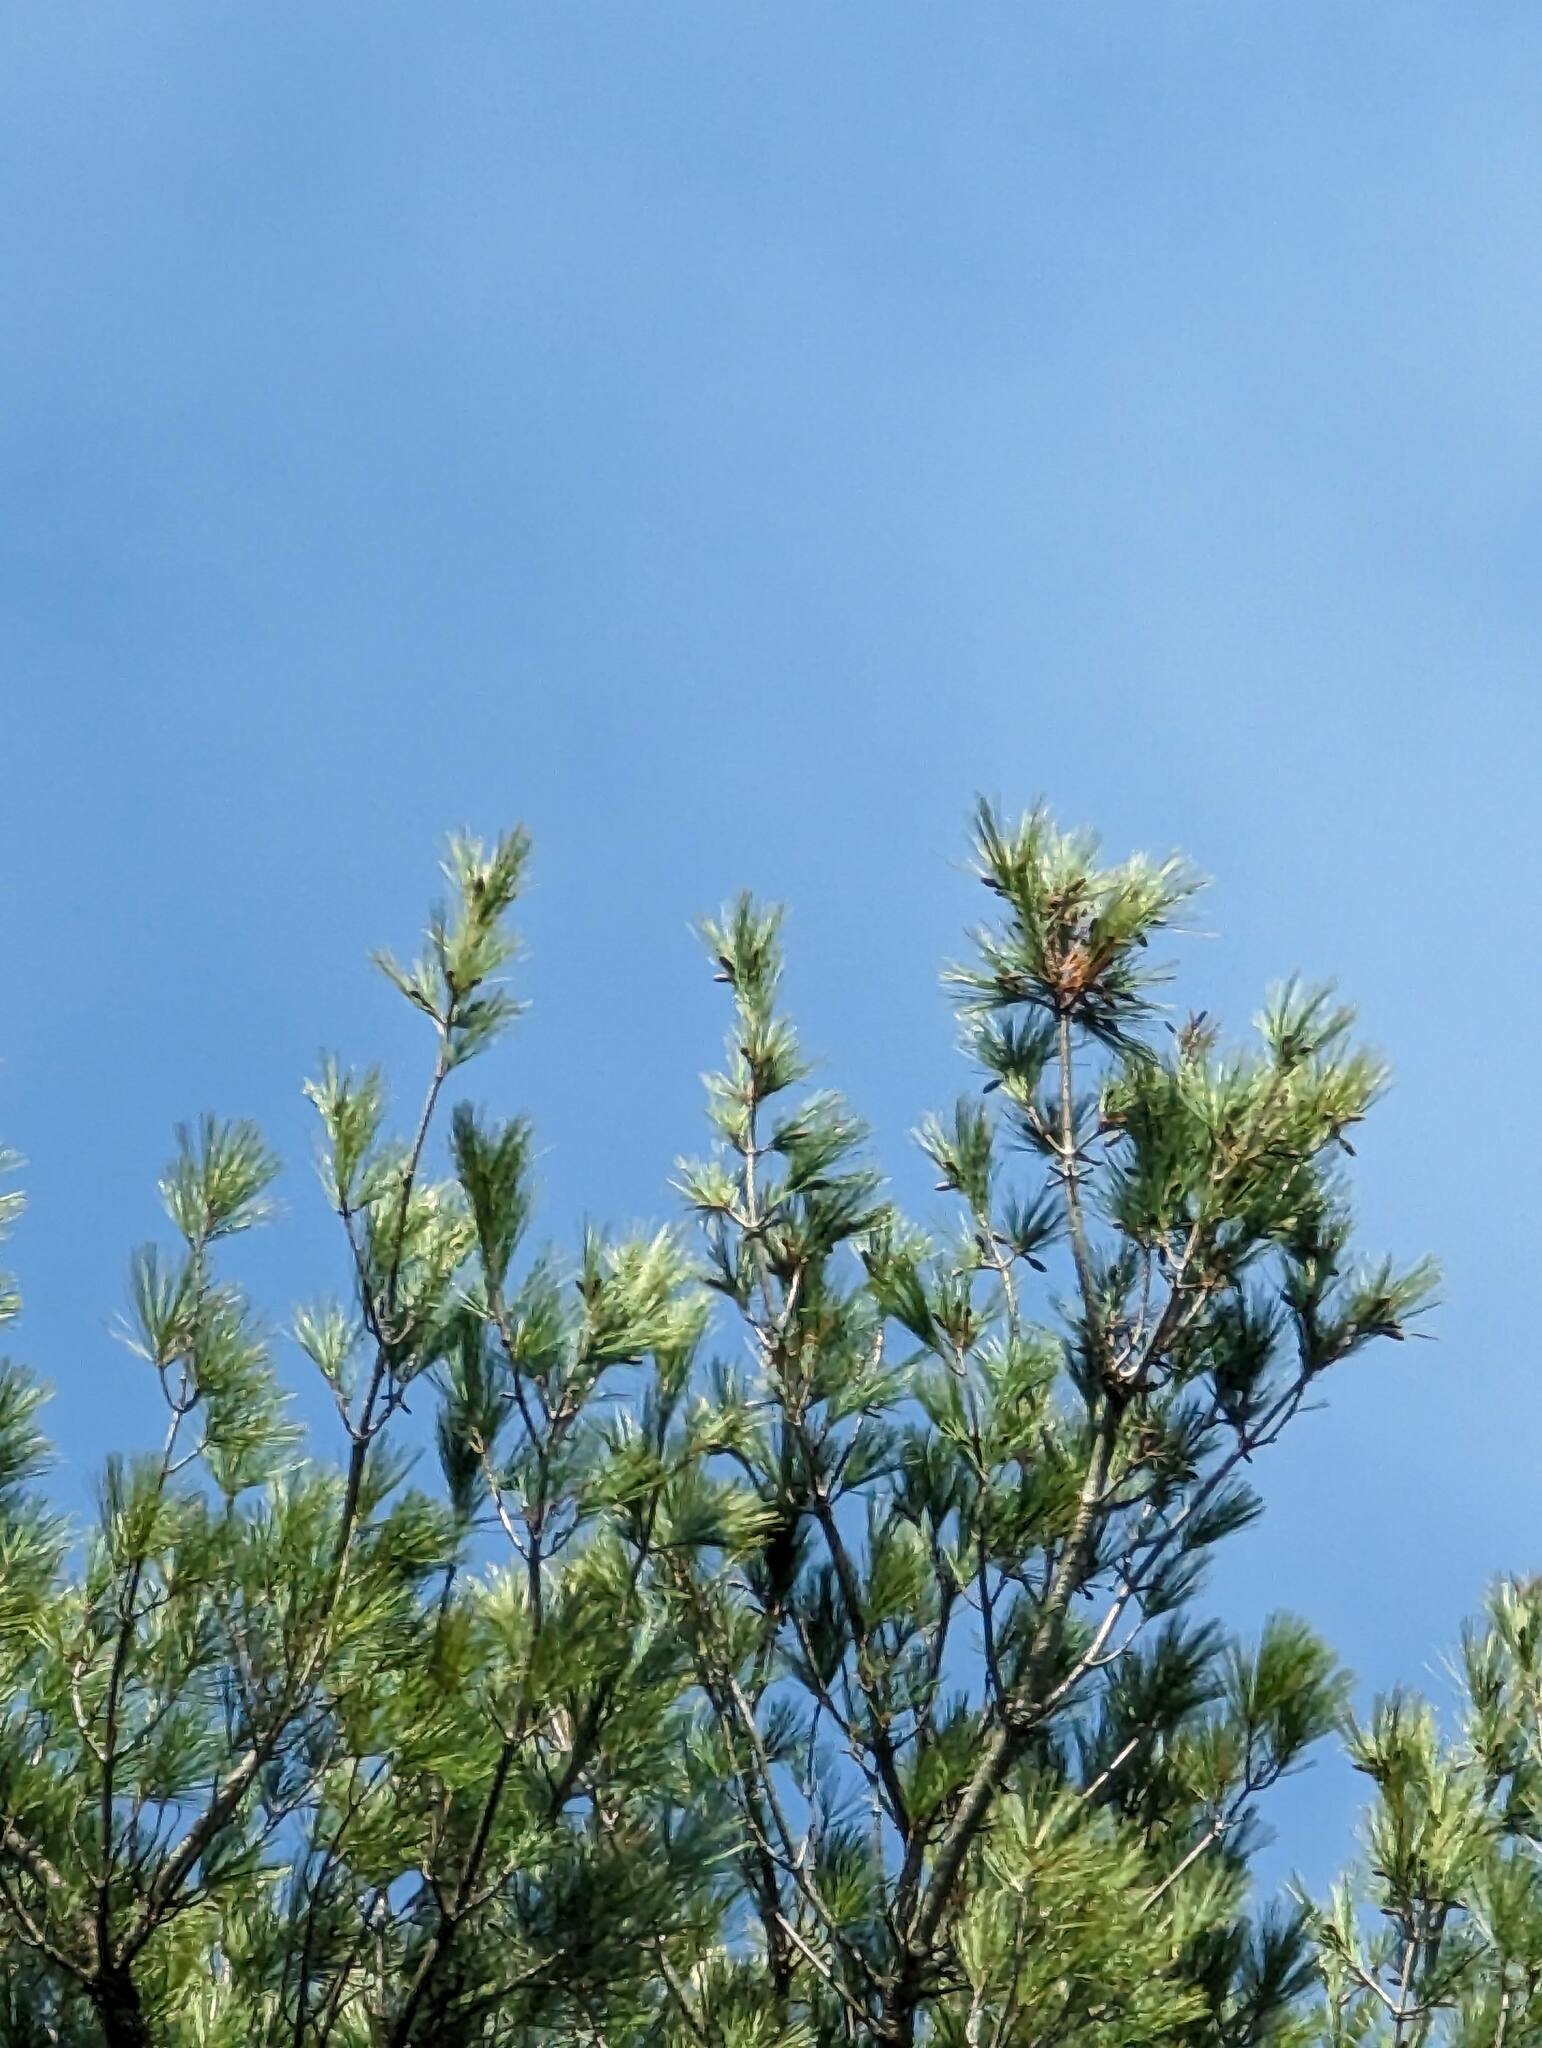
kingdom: Plantae
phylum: Tracheophyta
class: Pinopsida
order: Pinales
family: Pinaceae
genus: Pinus
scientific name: Pinus strobus
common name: Weymouth pine
